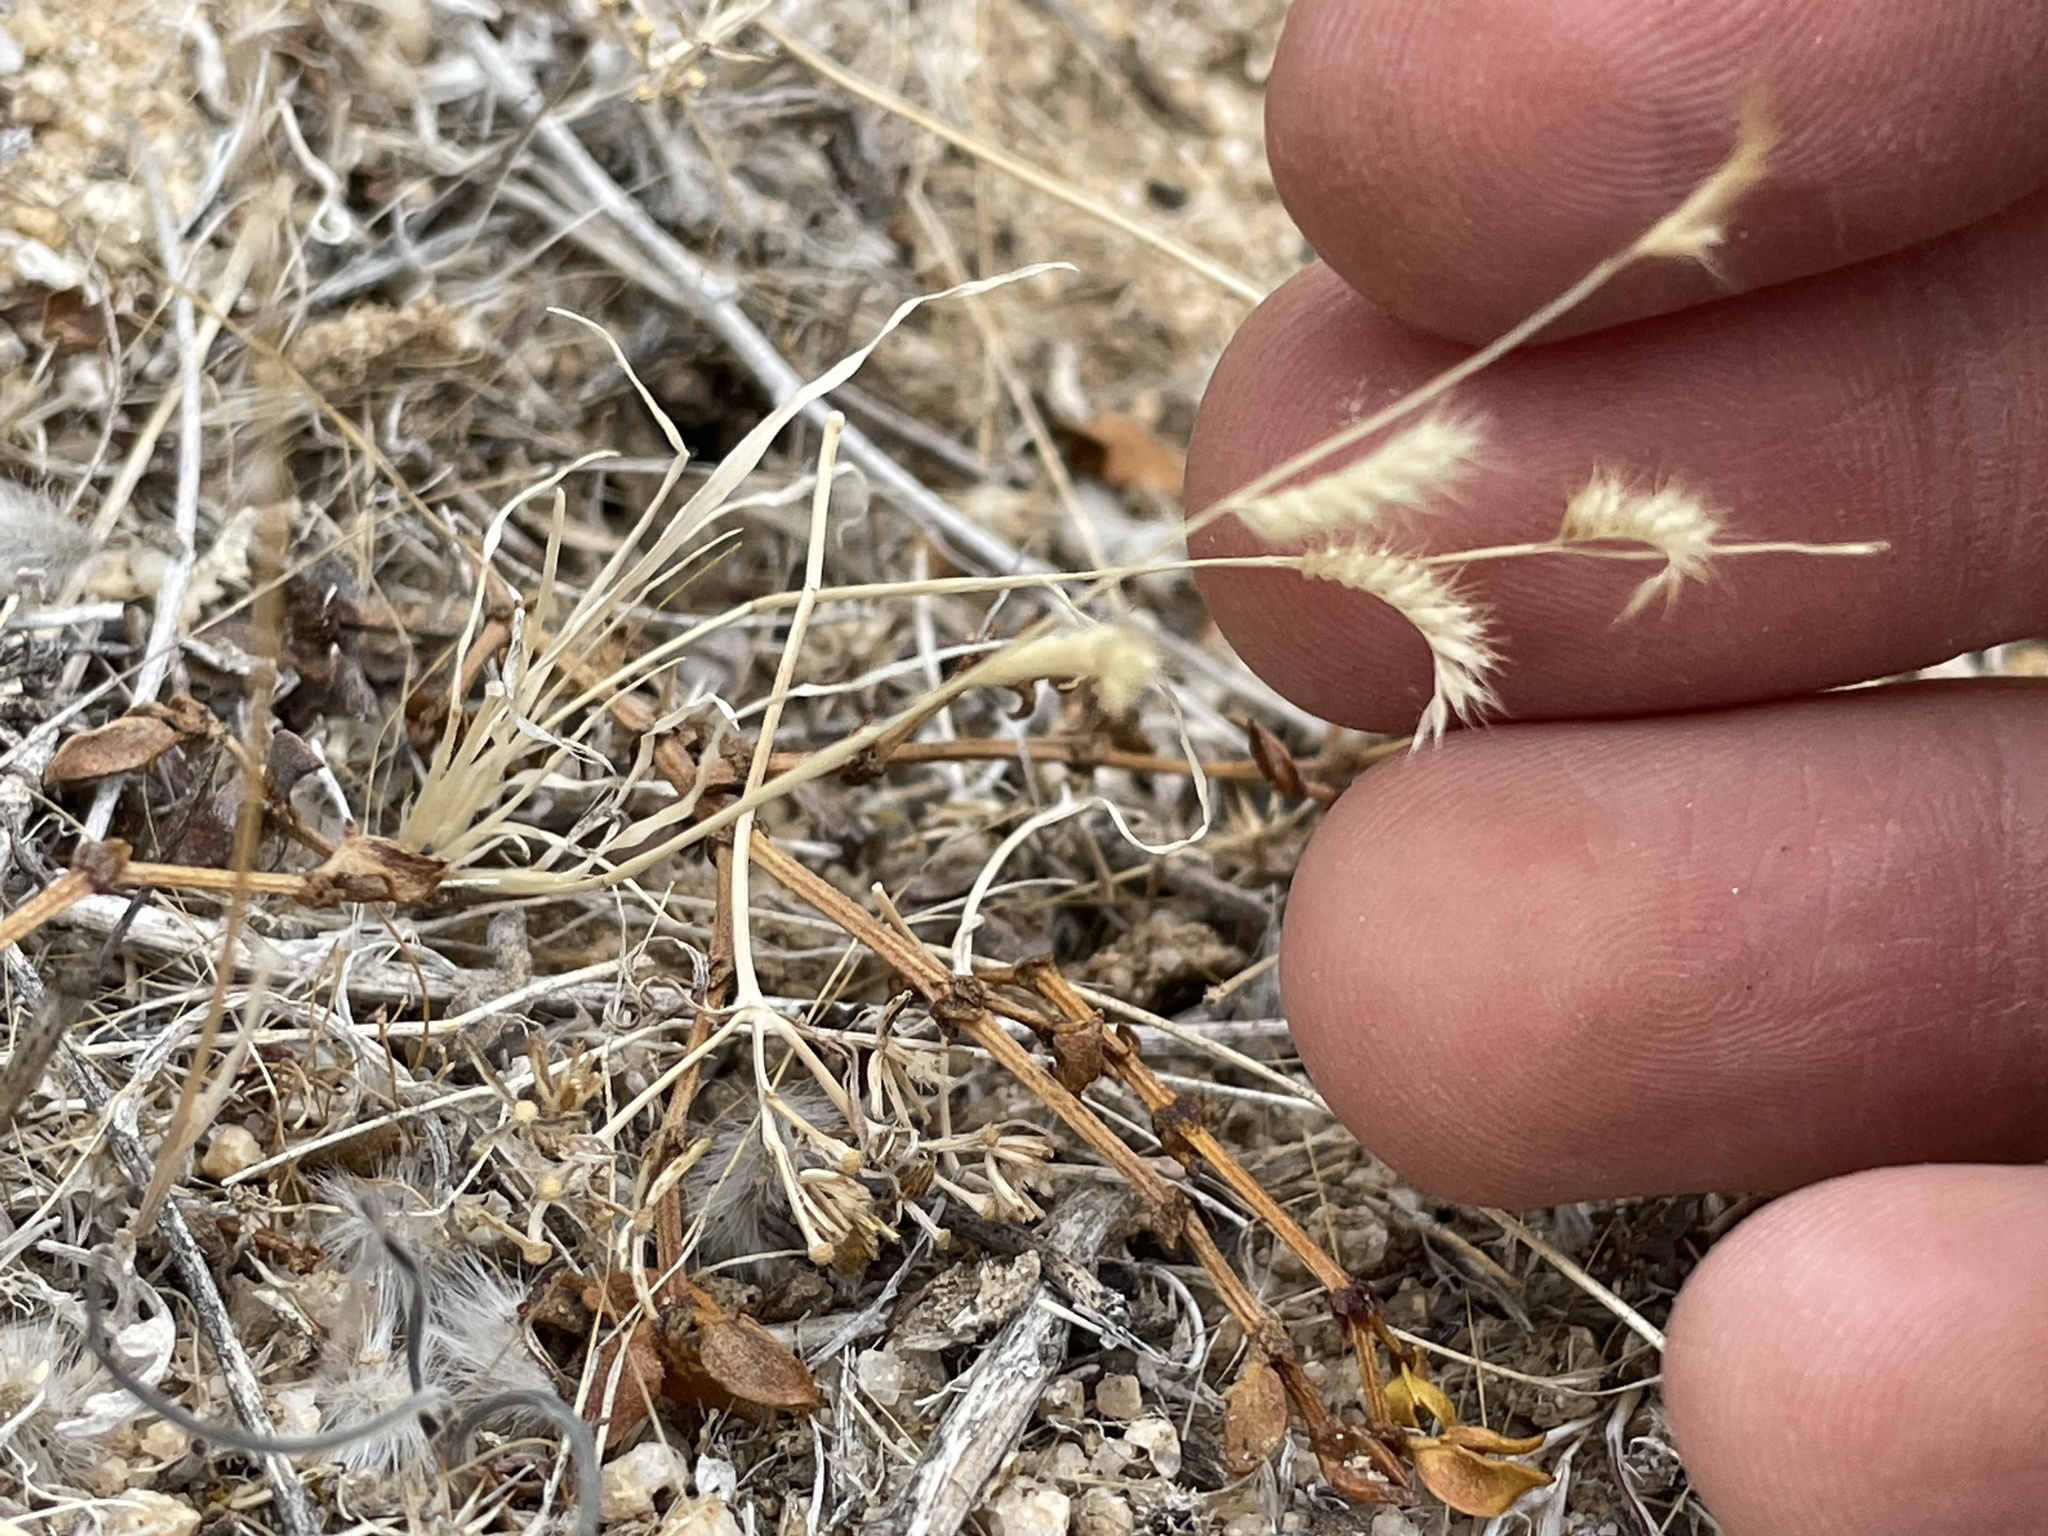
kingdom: Plantae
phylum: Tracheophyta
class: Liliopsida
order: Poales
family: Poaceae
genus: Bouteloua
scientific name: Bouteloua barbata
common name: Six-weeks grama
